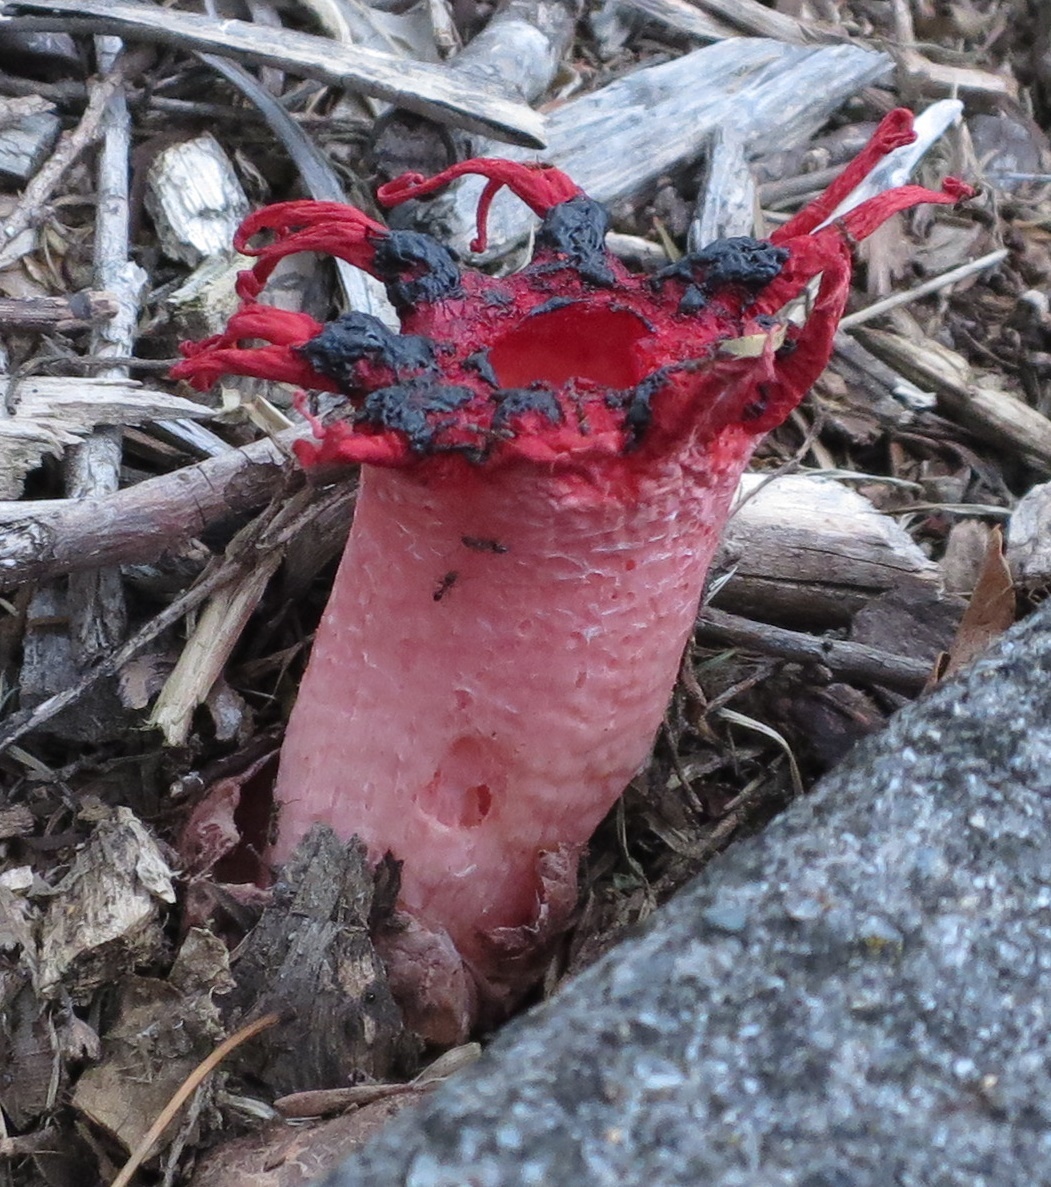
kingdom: Fungi
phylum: Basidiomycota
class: Agaricomycetes
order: Phallales
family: Phallaceae
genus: Aseroe
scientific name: Aseroe rubra
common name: Starfish fungus
